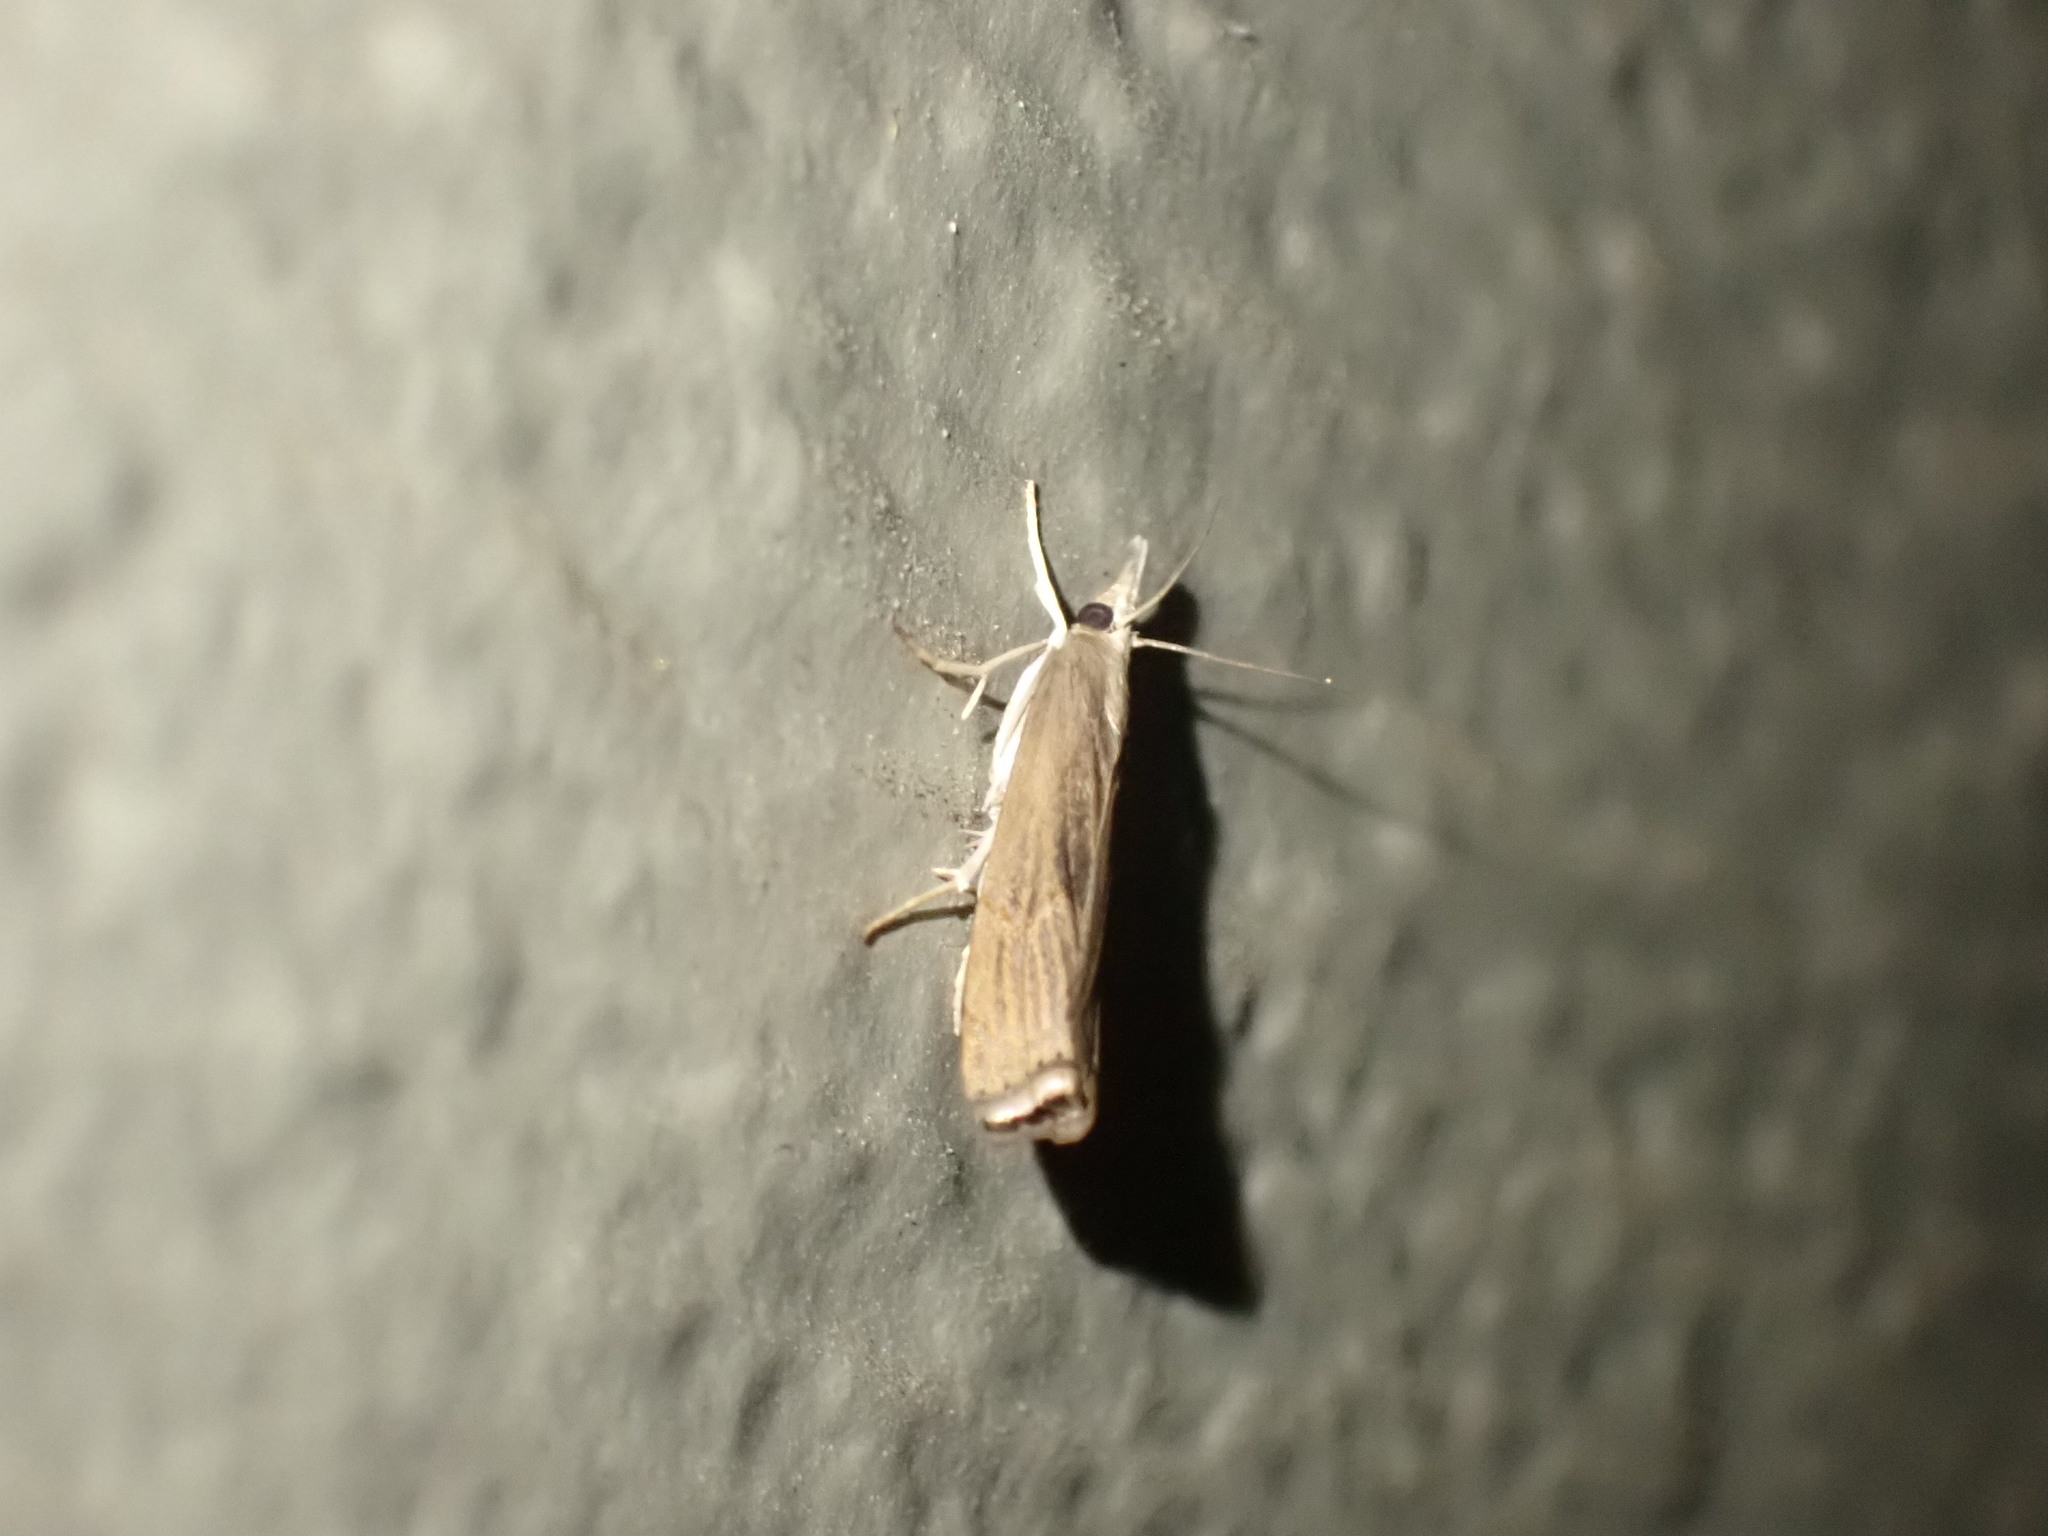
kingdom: Animalia
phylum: Arthropoda
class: Insecta
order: Lepidoptera
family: Crambidae
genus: Parapediasia
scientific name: Parapediasia teterellus
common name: Bluegrass webworm moth
